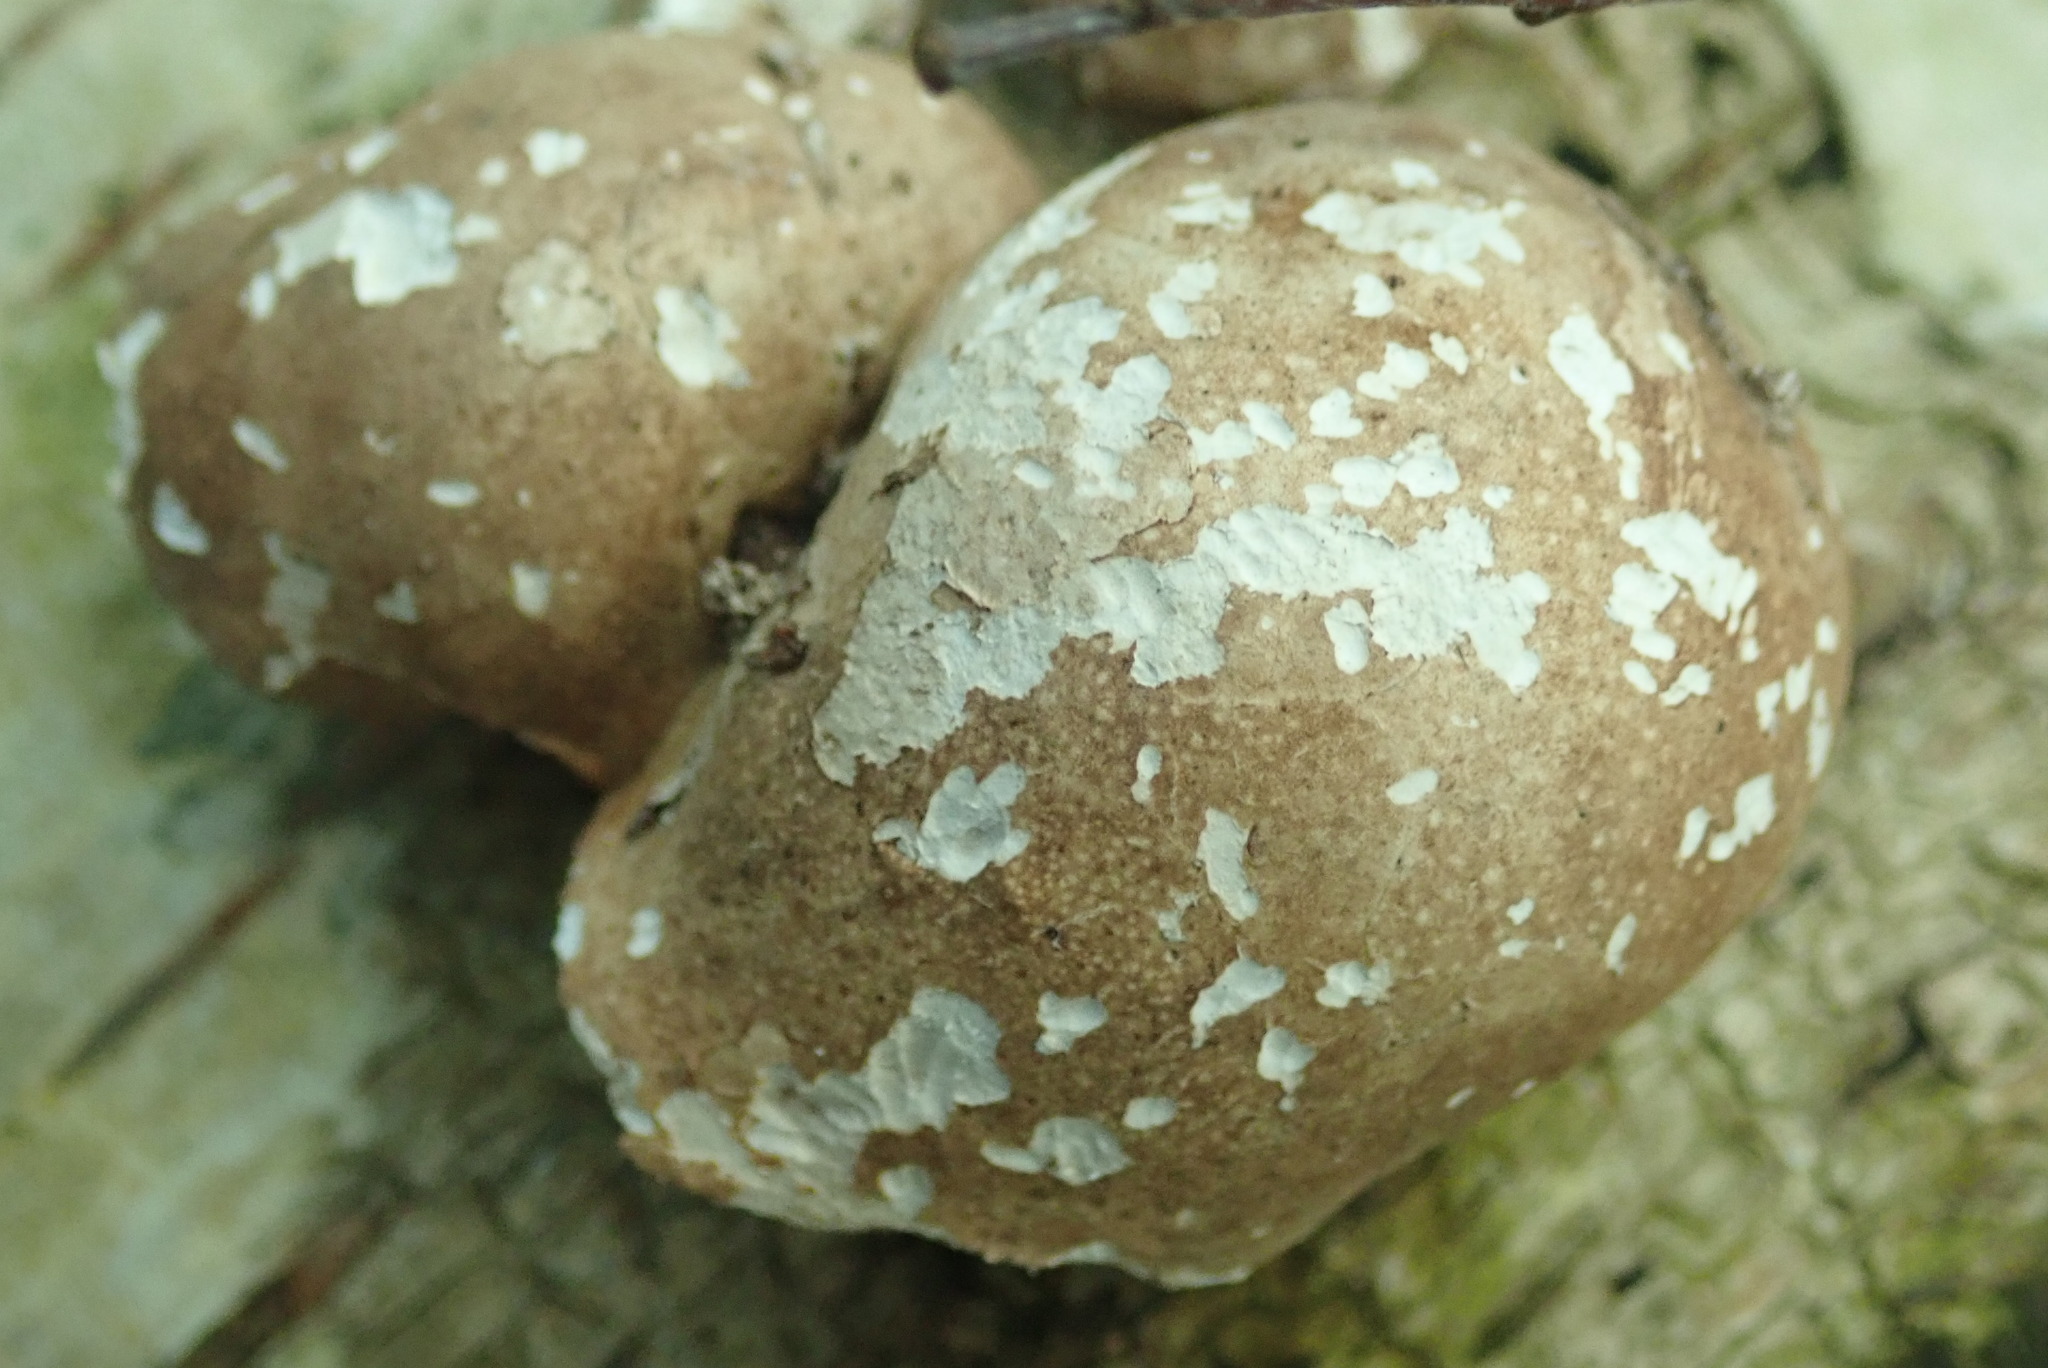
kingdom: Fungi
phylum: Basidiomycota
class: Agaricomycetes
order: Polyporales
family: Fomitopsidaceae
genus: Fomitopsis
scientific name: Fomitopsis betulina
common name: Birch polypore
